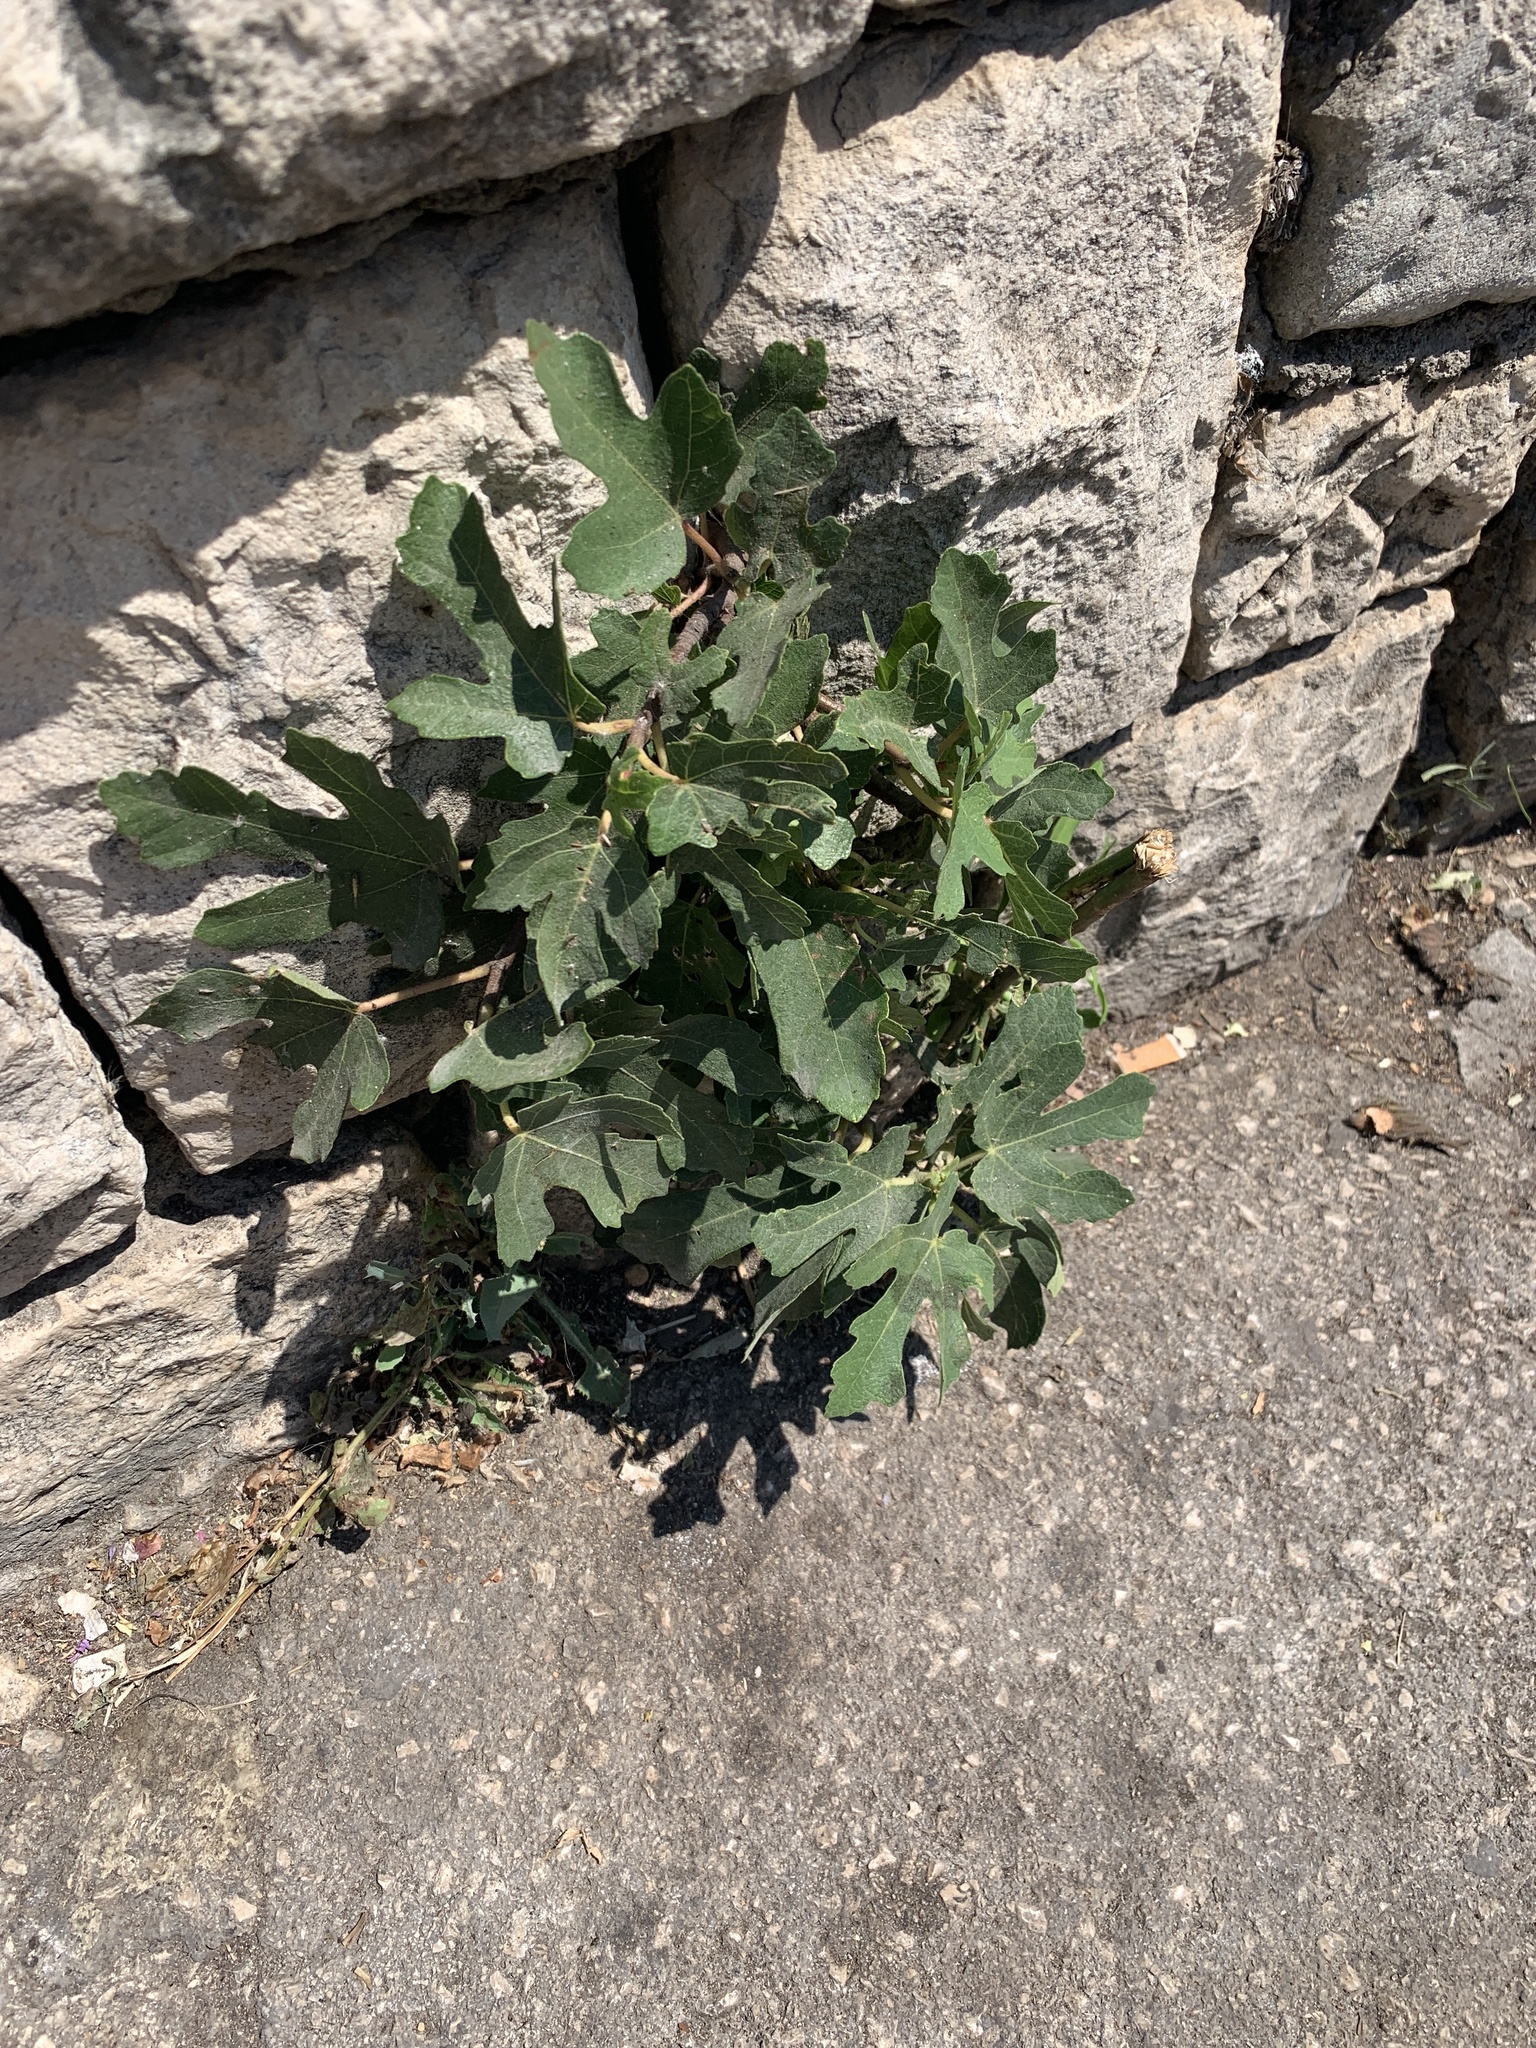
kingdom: Plantae
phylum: Tracheophyta
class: Magnoliopsida
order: Rosales
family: Moraceae
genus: Ficus
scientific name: Ficus carica
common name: Fig
